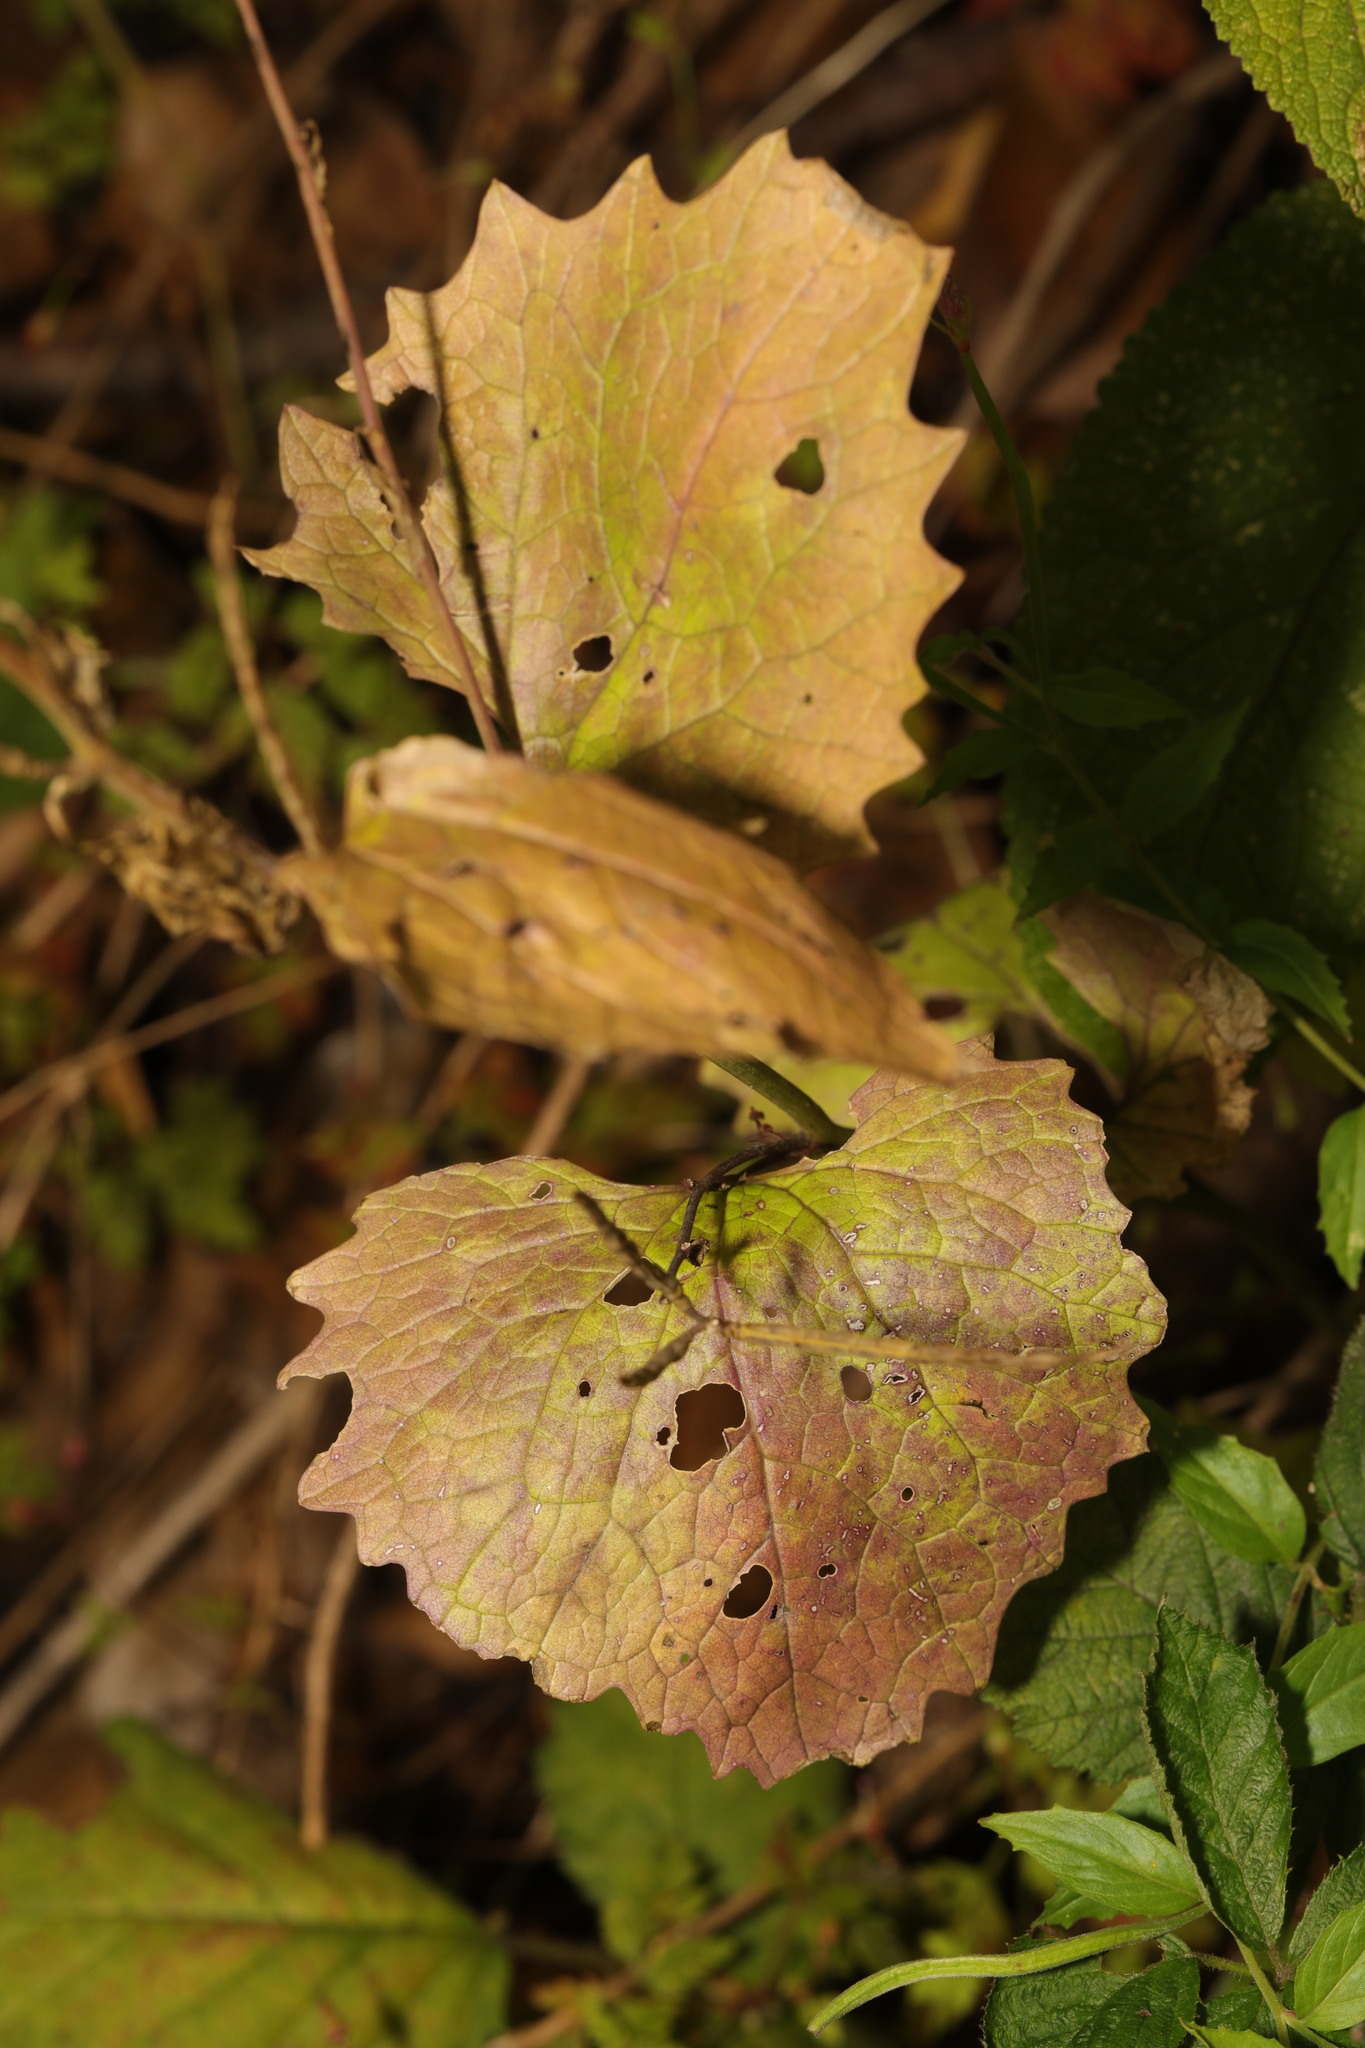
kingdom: Plantae
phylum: Tracheophyta
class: Magnoliopsida
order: Brassicales
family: Brassicaceae
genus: Alliaria
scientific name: Alliaria petiolata
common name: Garlic mustard
